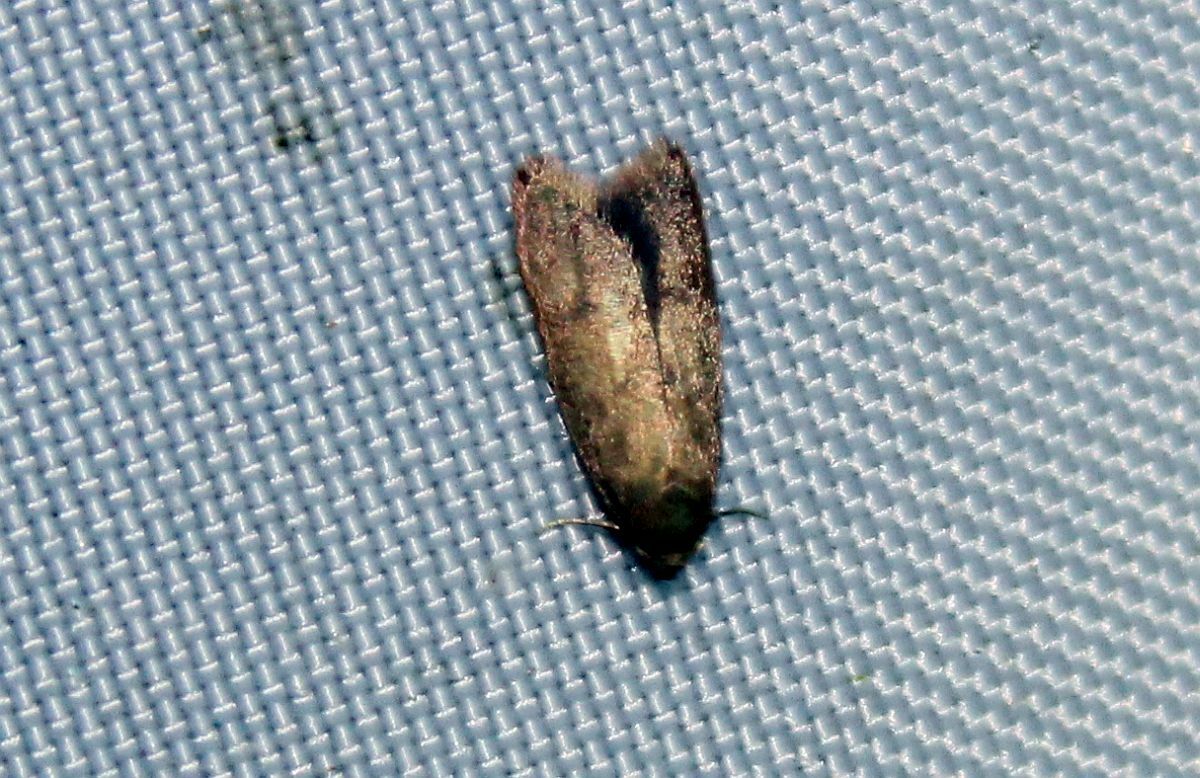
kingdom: Animalia
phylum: Arthropoda
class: Insecta
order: Lepidoptera
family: Oecophoridae
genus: Tachystola
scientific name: Tachystola acroxantha
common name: Ruddy streak
